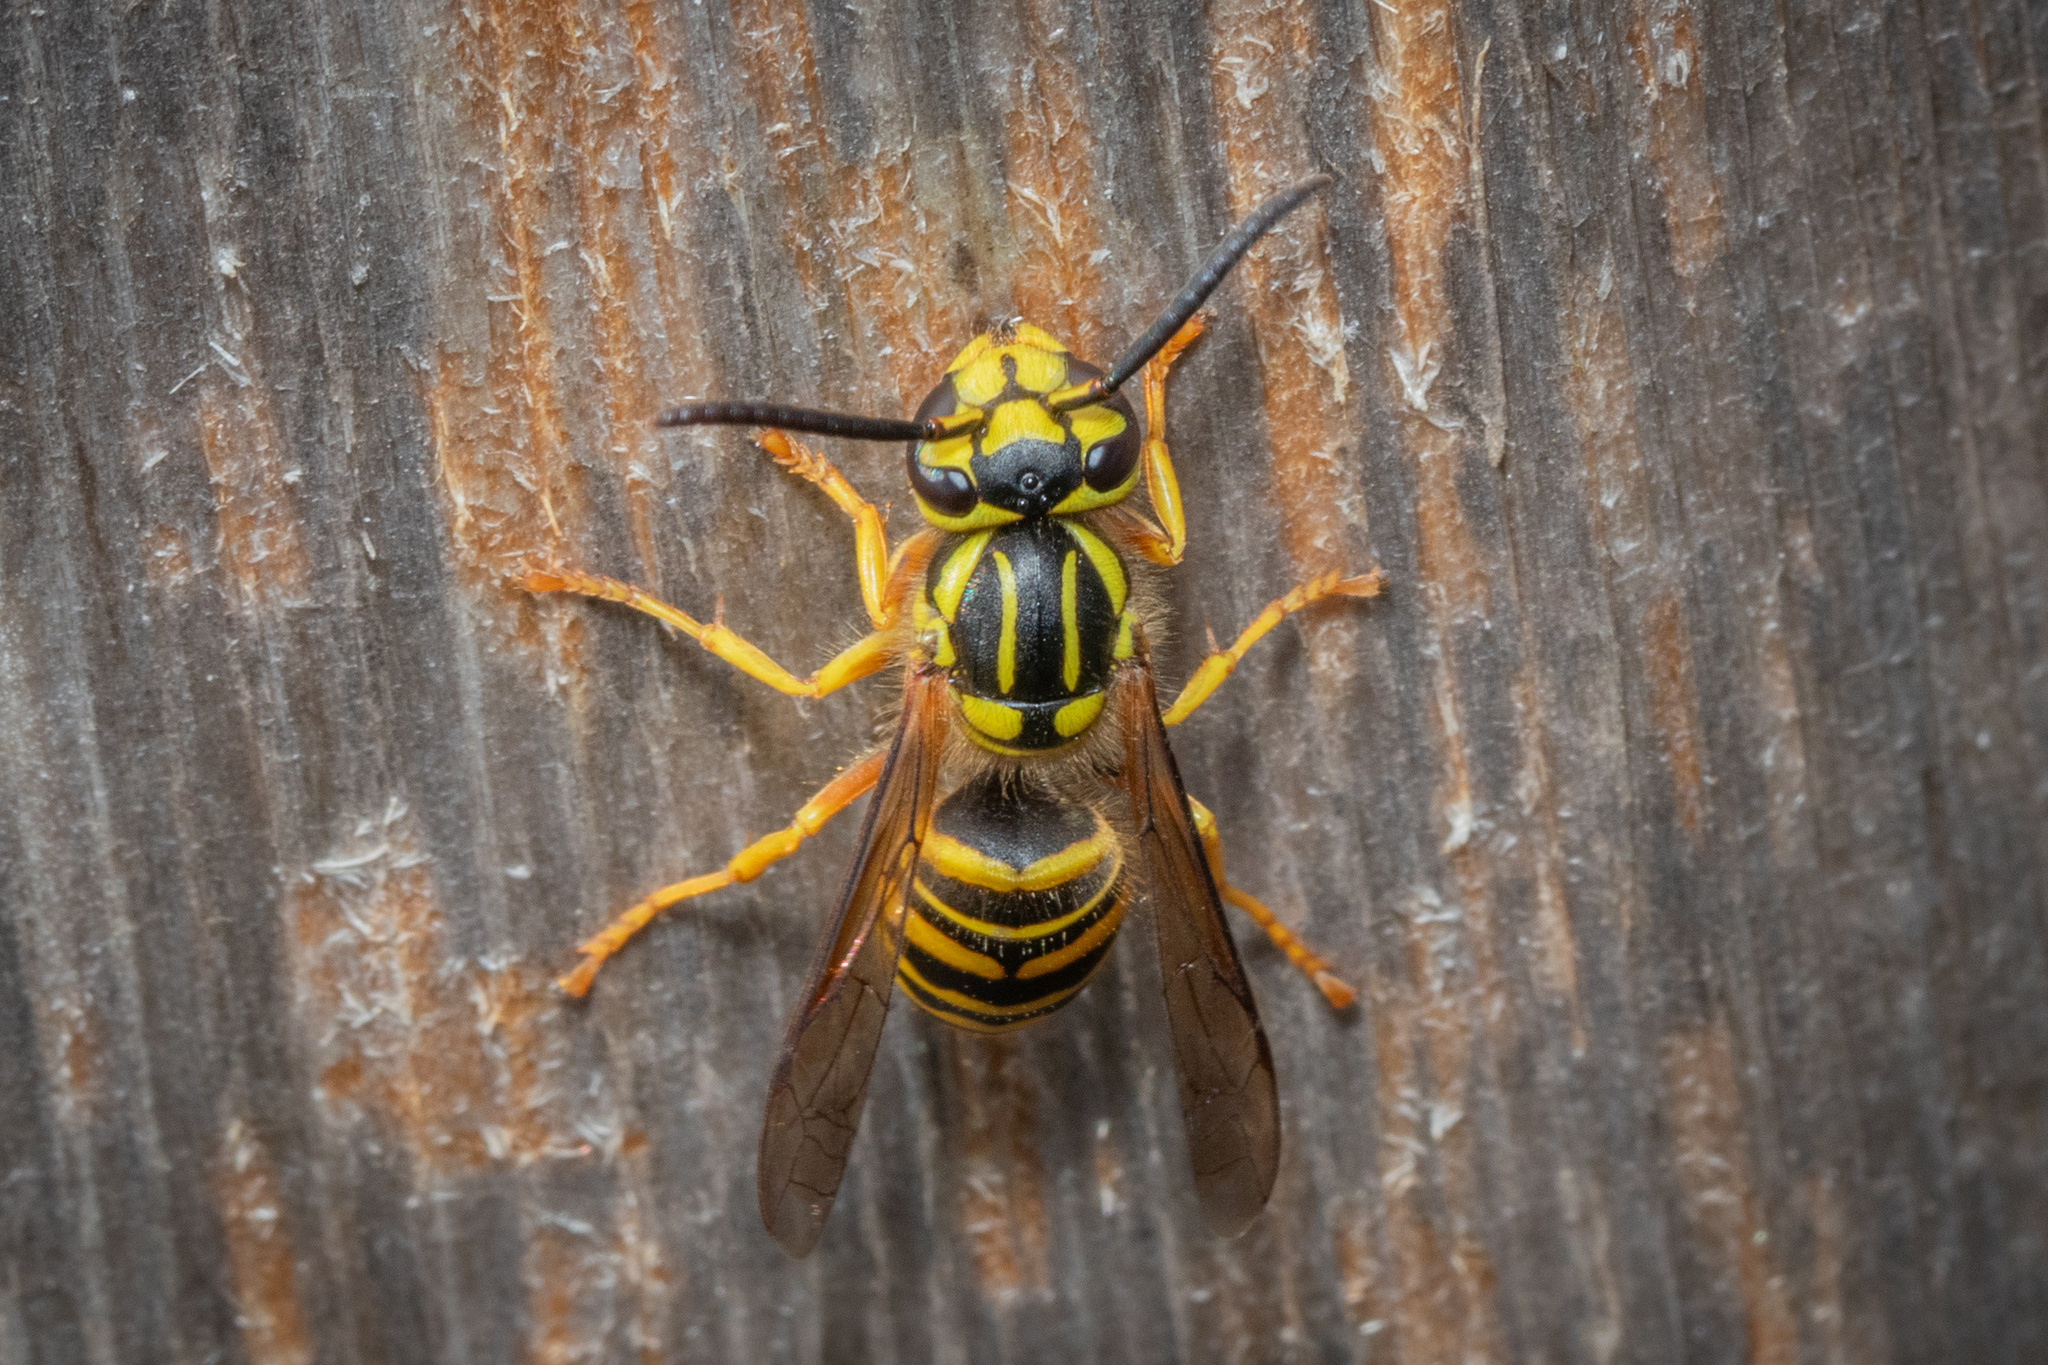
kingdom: Animalia
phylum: Arthropoda
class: Insecta
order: Hymenoptera
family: Vespidae
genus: Vespula
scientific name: Vespula squamosa
